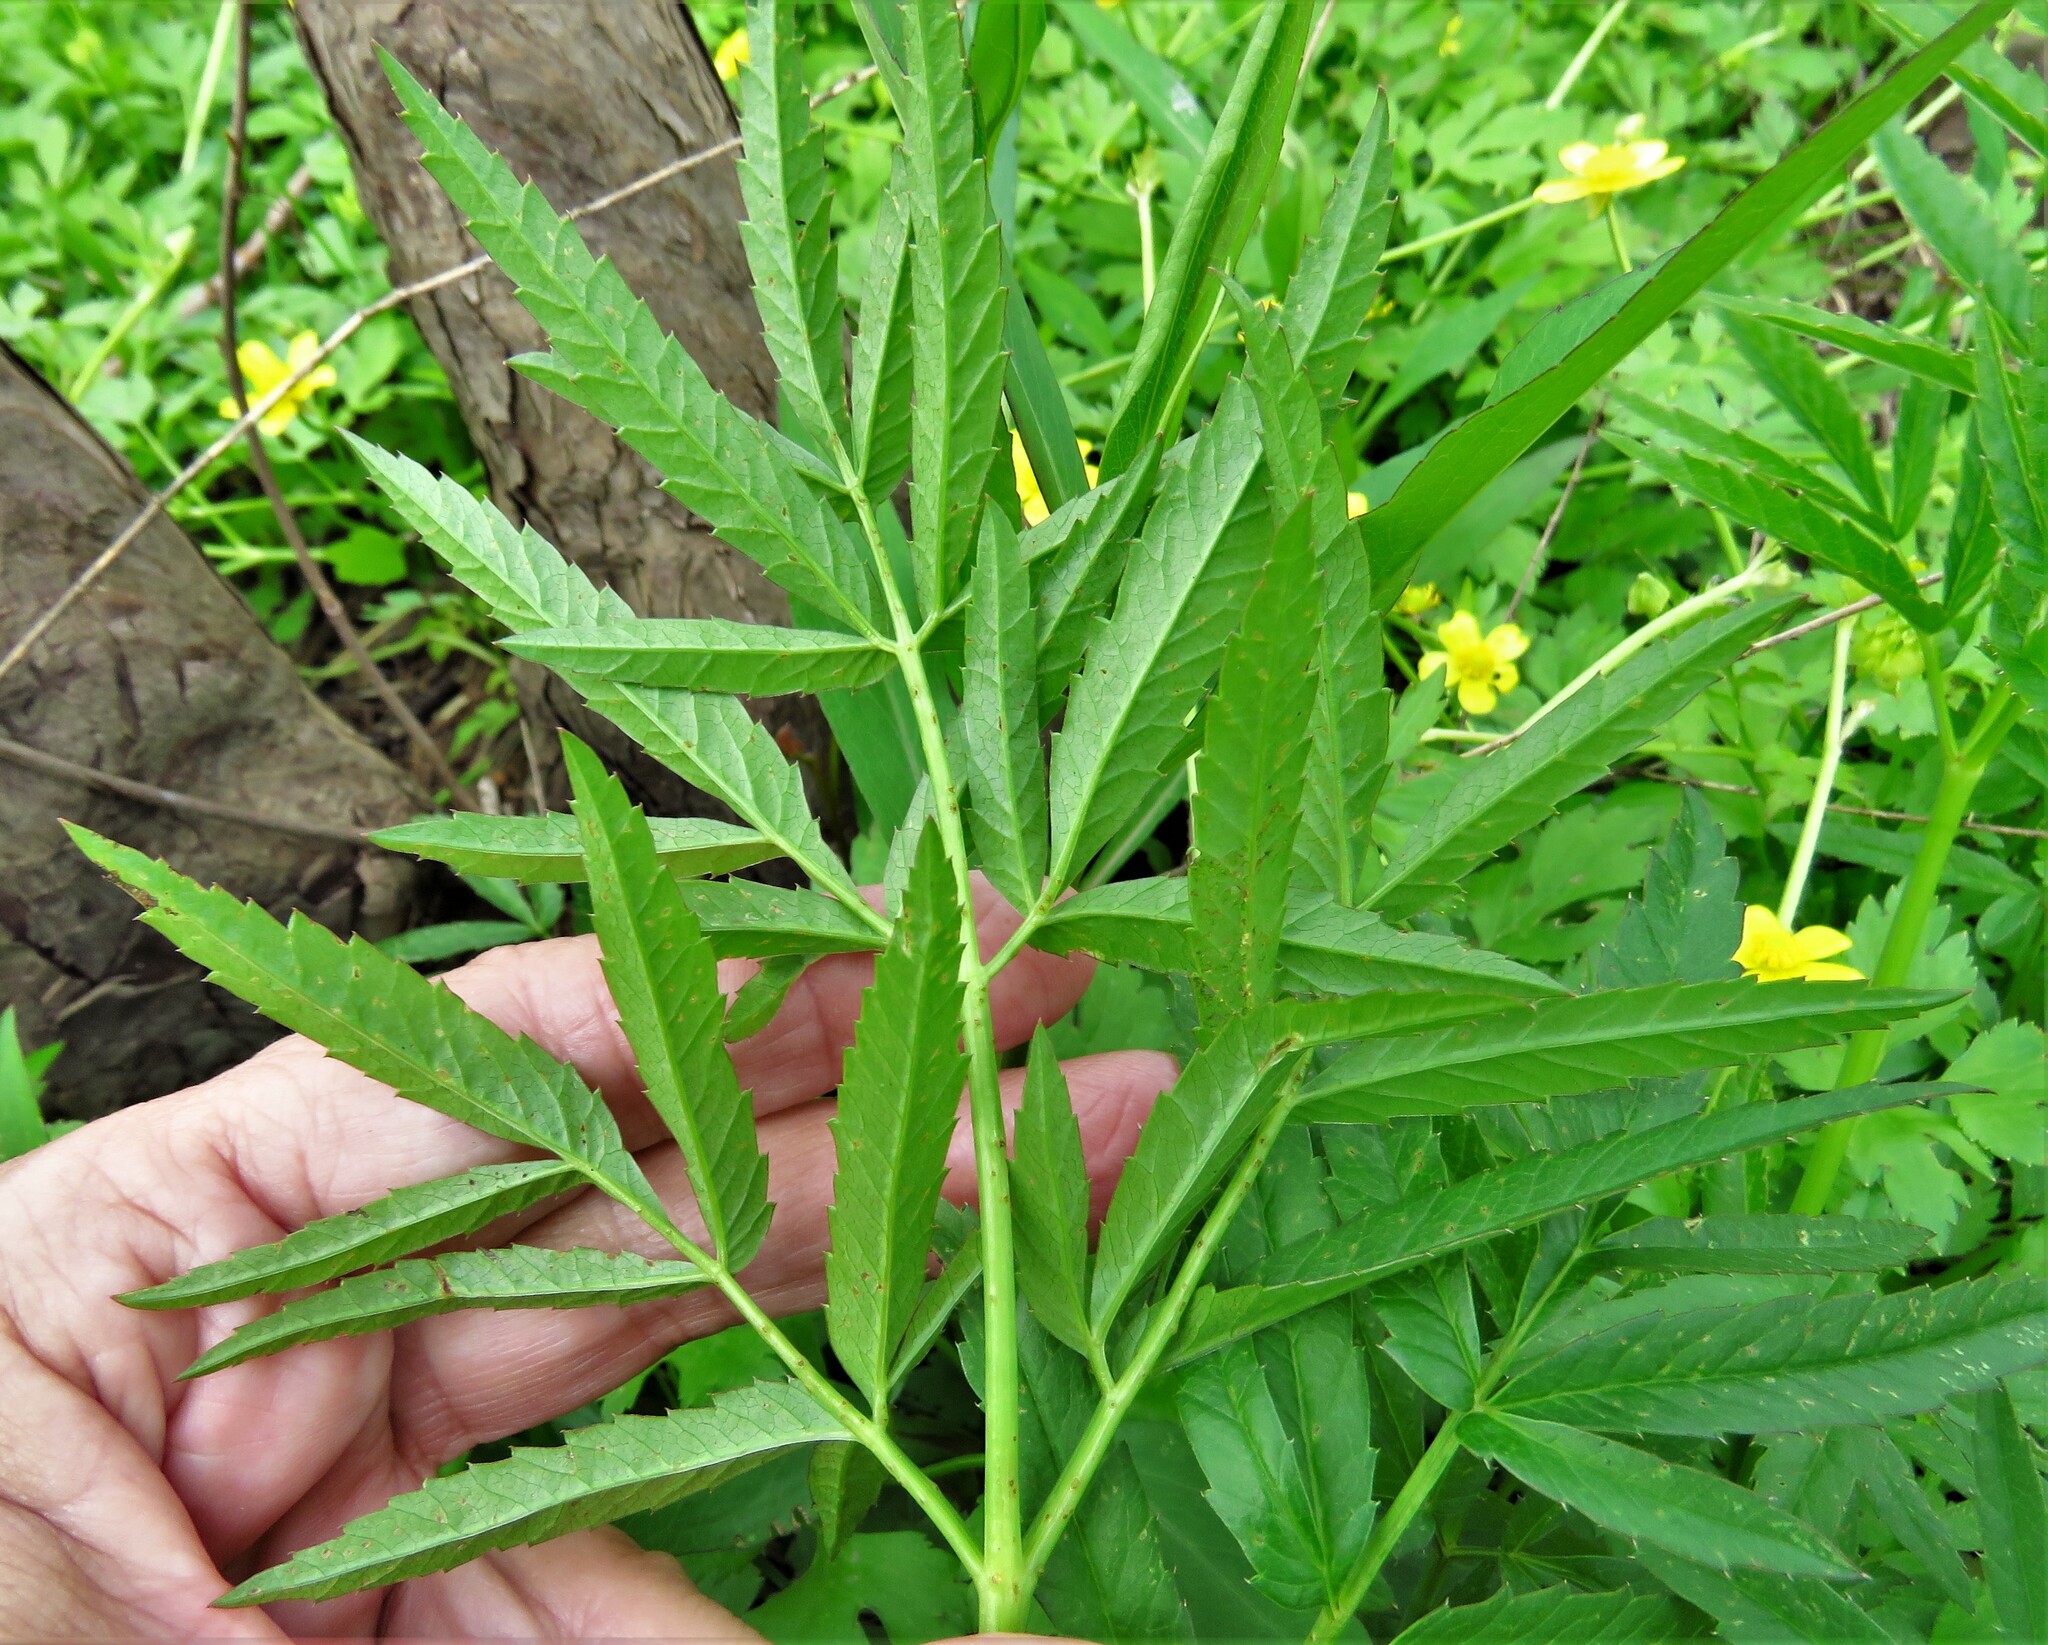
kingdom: Plantae
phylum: Tracheophyta
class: Magnoliopsida
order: Apiales
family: Apiaceae
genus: Cicuta
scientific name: Cicuta maculata
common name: Spotted cowbane
